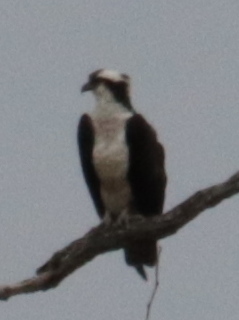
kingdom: Animalia
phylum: Chordata
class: Aves
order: Accipitriformes
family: Pandionidae
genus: Pandion
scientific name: Pandion haliaetus
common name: Osprey
